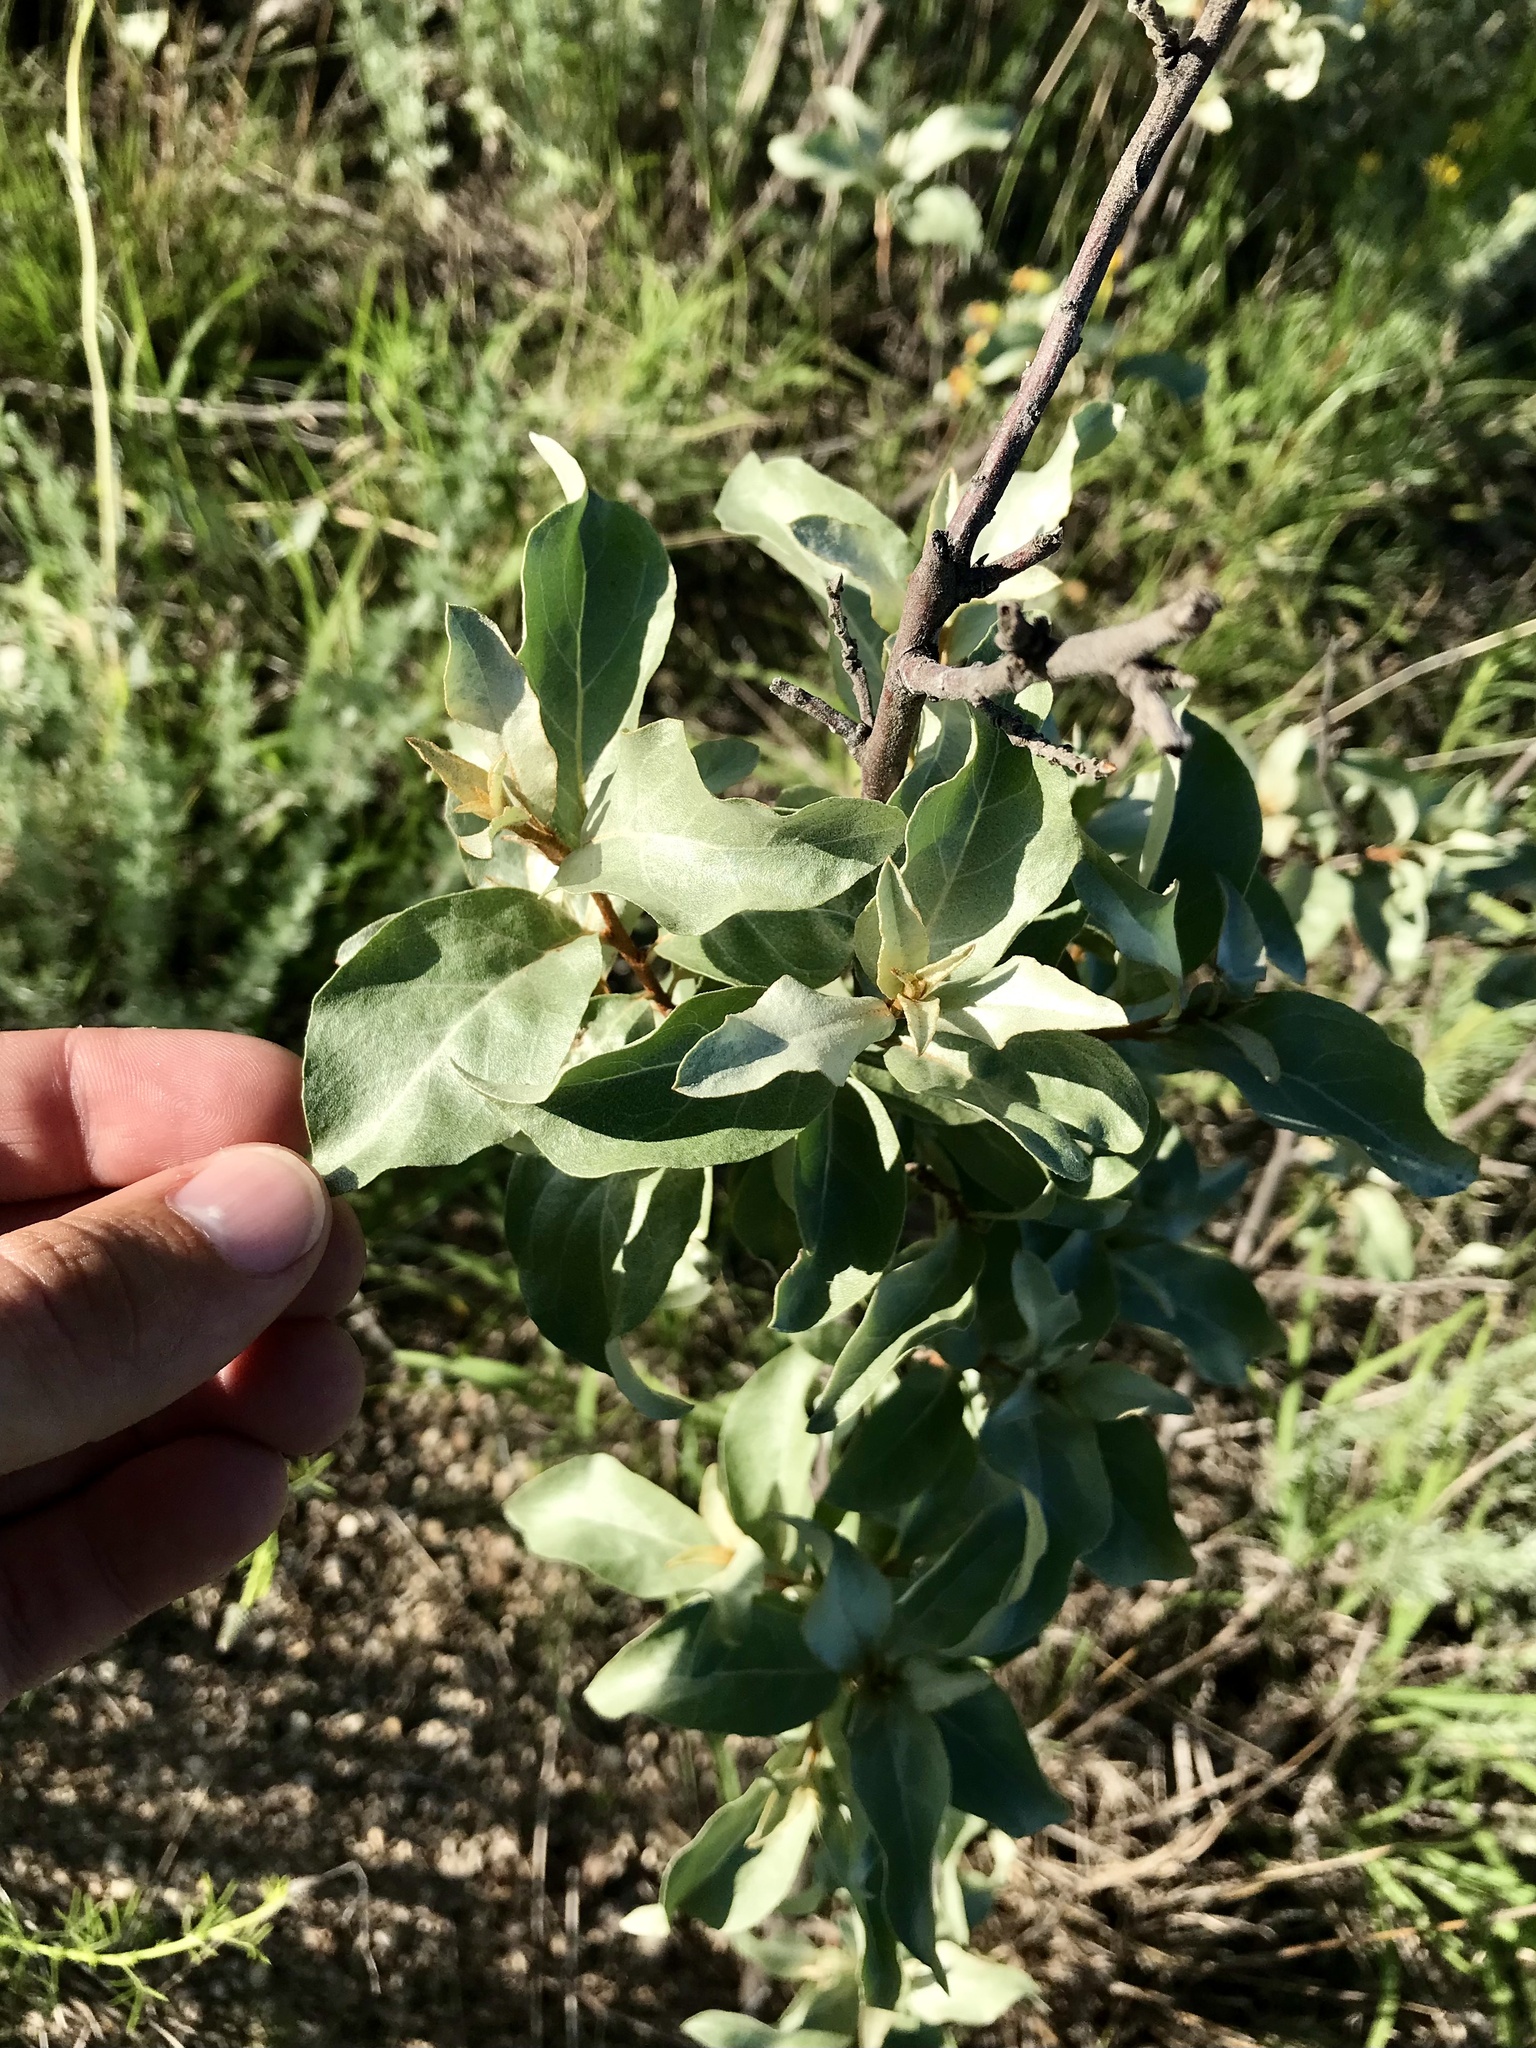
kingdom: Plantae
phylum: Tracheophyta
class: Magnoliopsida
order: Rosales
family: Elaeagnaceae
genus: Elaeagnus
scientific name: Elaeagnus commutata
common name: Silverberry
